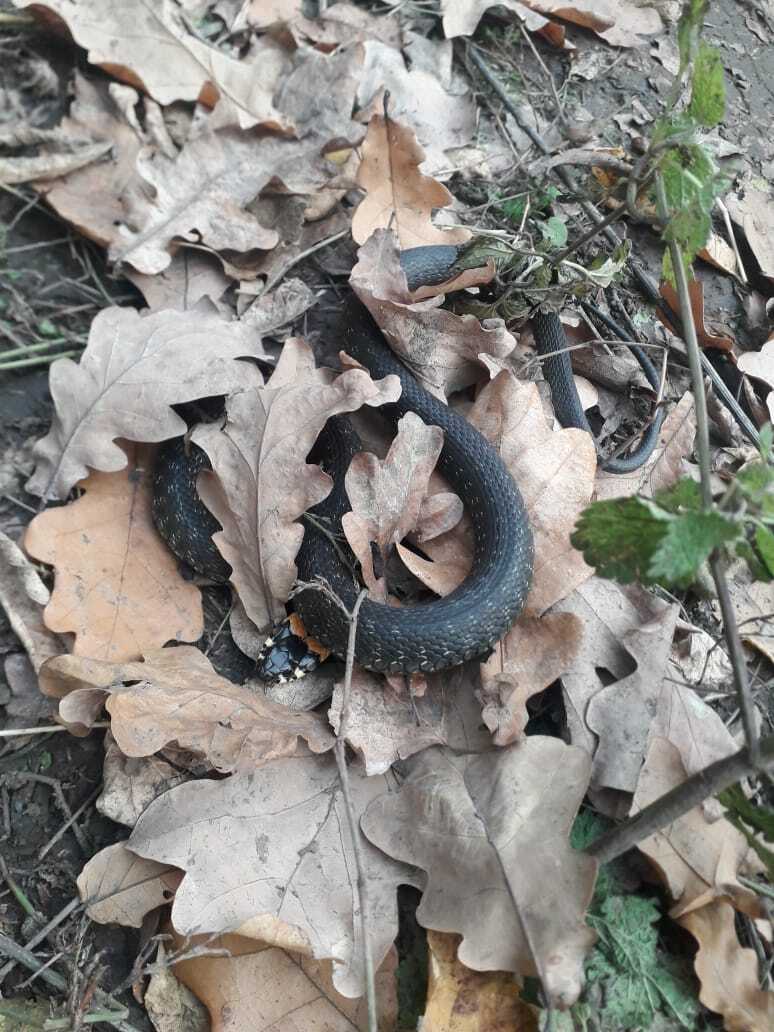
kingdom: Animalia
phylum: Chordata
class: Squamata
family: Colubridae
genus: Natrix
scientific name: Natrix natrix
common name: Grass snake
